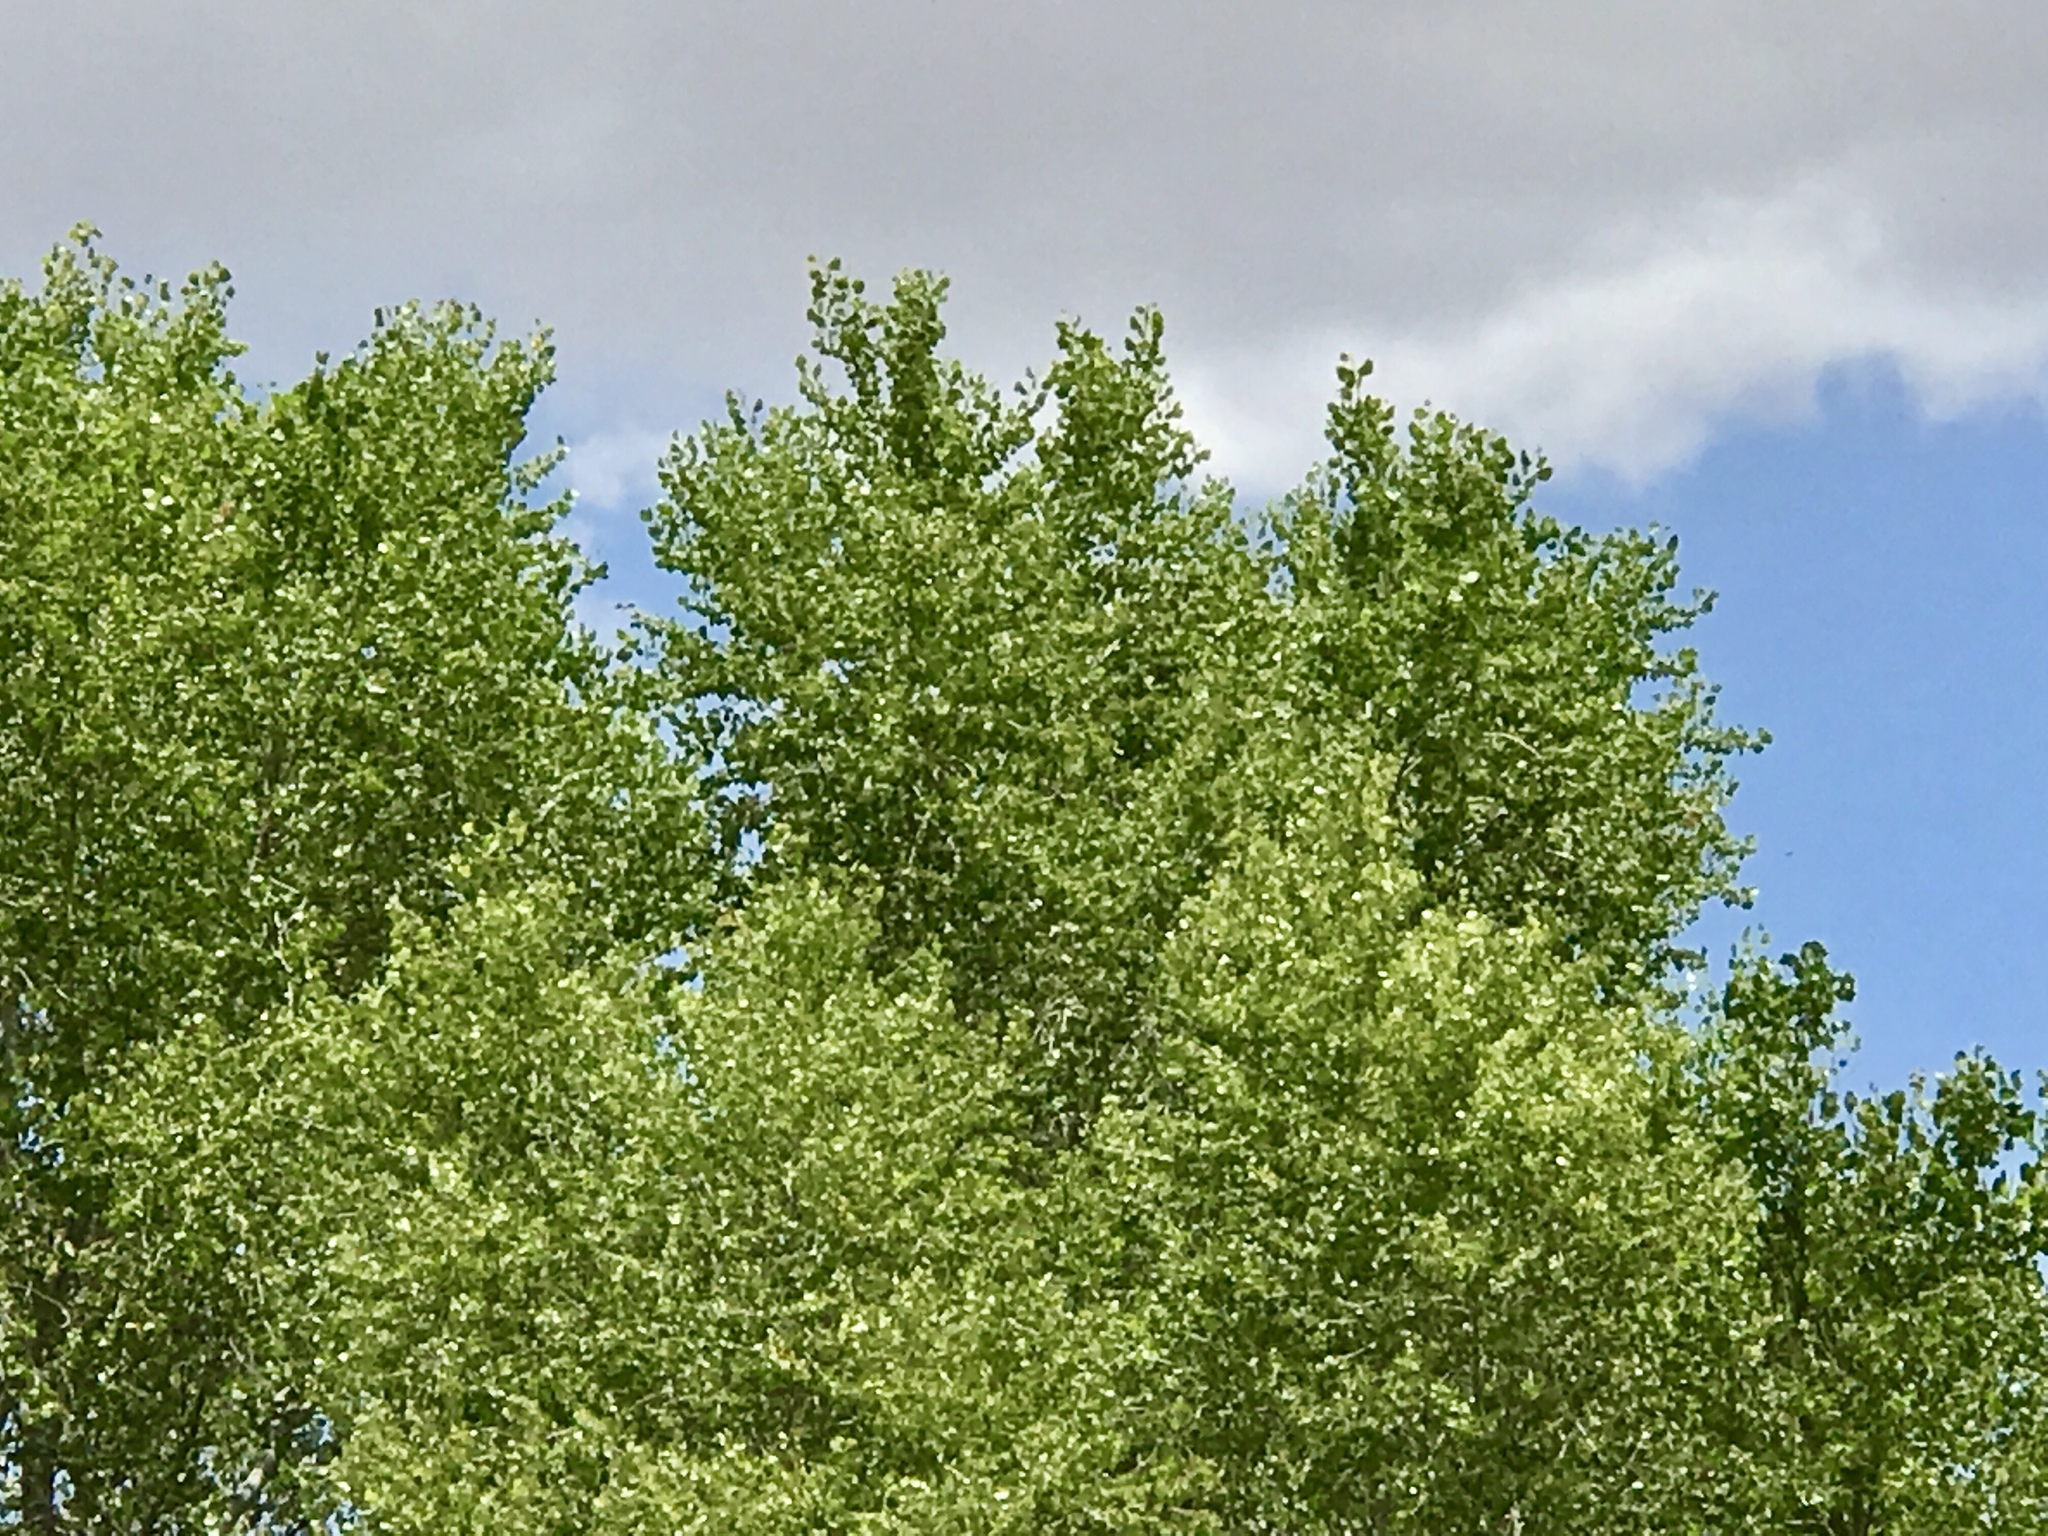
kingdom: Plantae
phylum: Tracheophyta
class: Magnoliopsida
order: Malpighiales
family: Salicaceae
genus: Populus
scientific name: Populus fremontii
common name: Fremont's cottonwood
